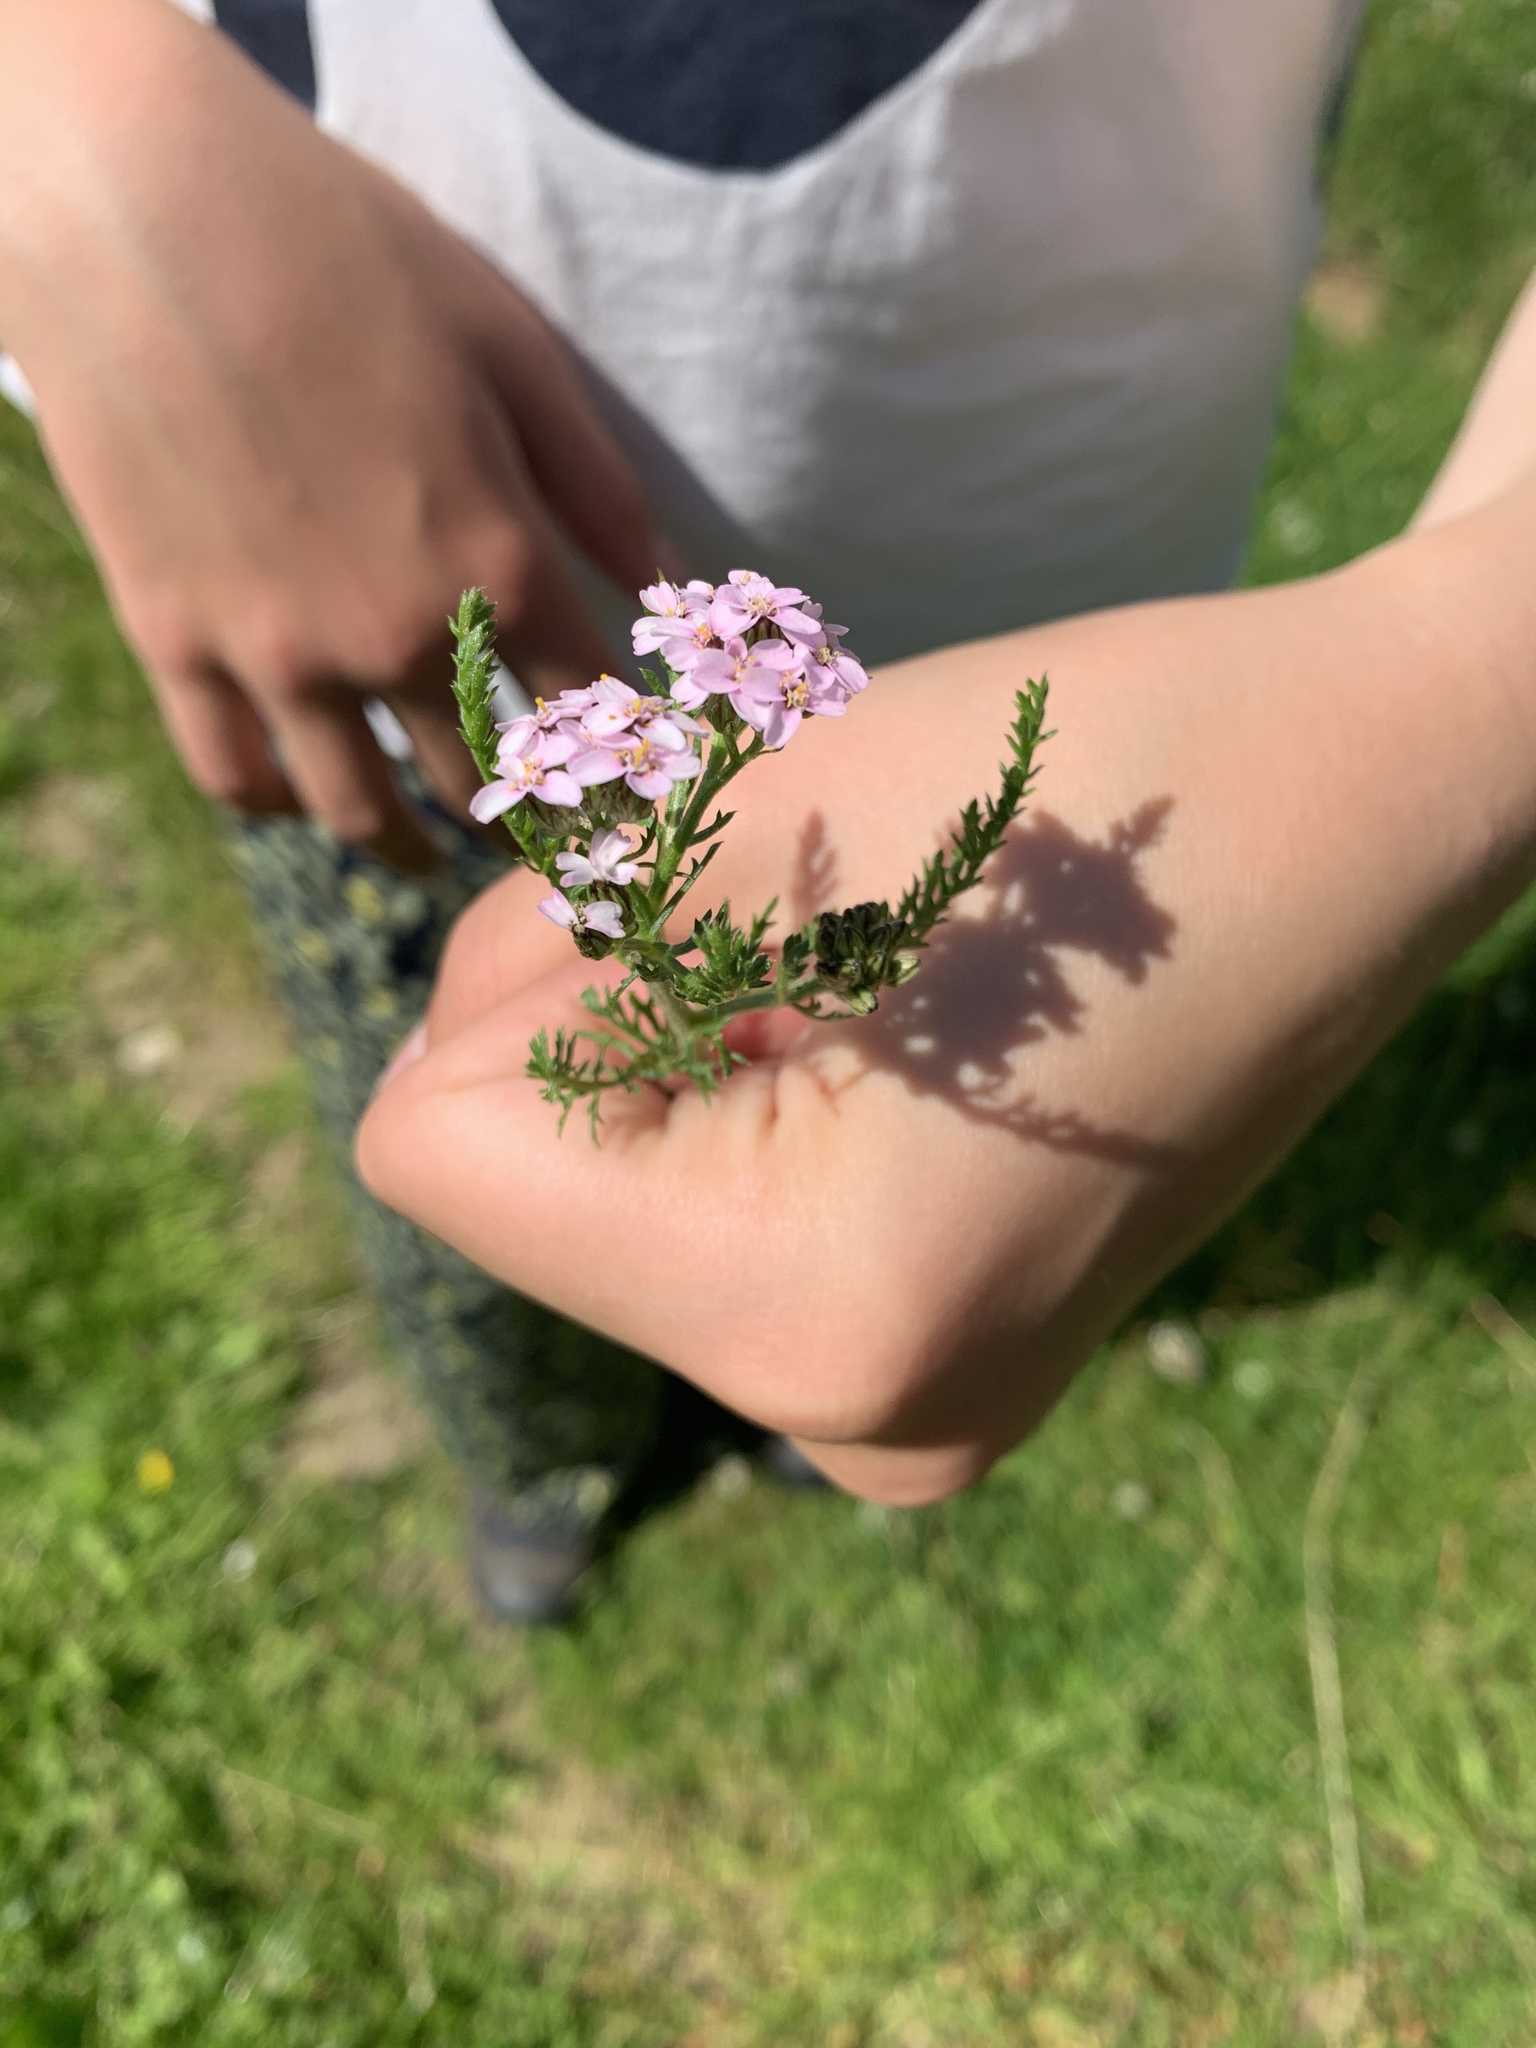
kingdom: Plantae
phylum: Tracheophyta
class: Magnoliopsida
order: Asterales
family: Asteraceae
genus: Achillea
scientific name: Achillea millefolium
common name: Yarrow
